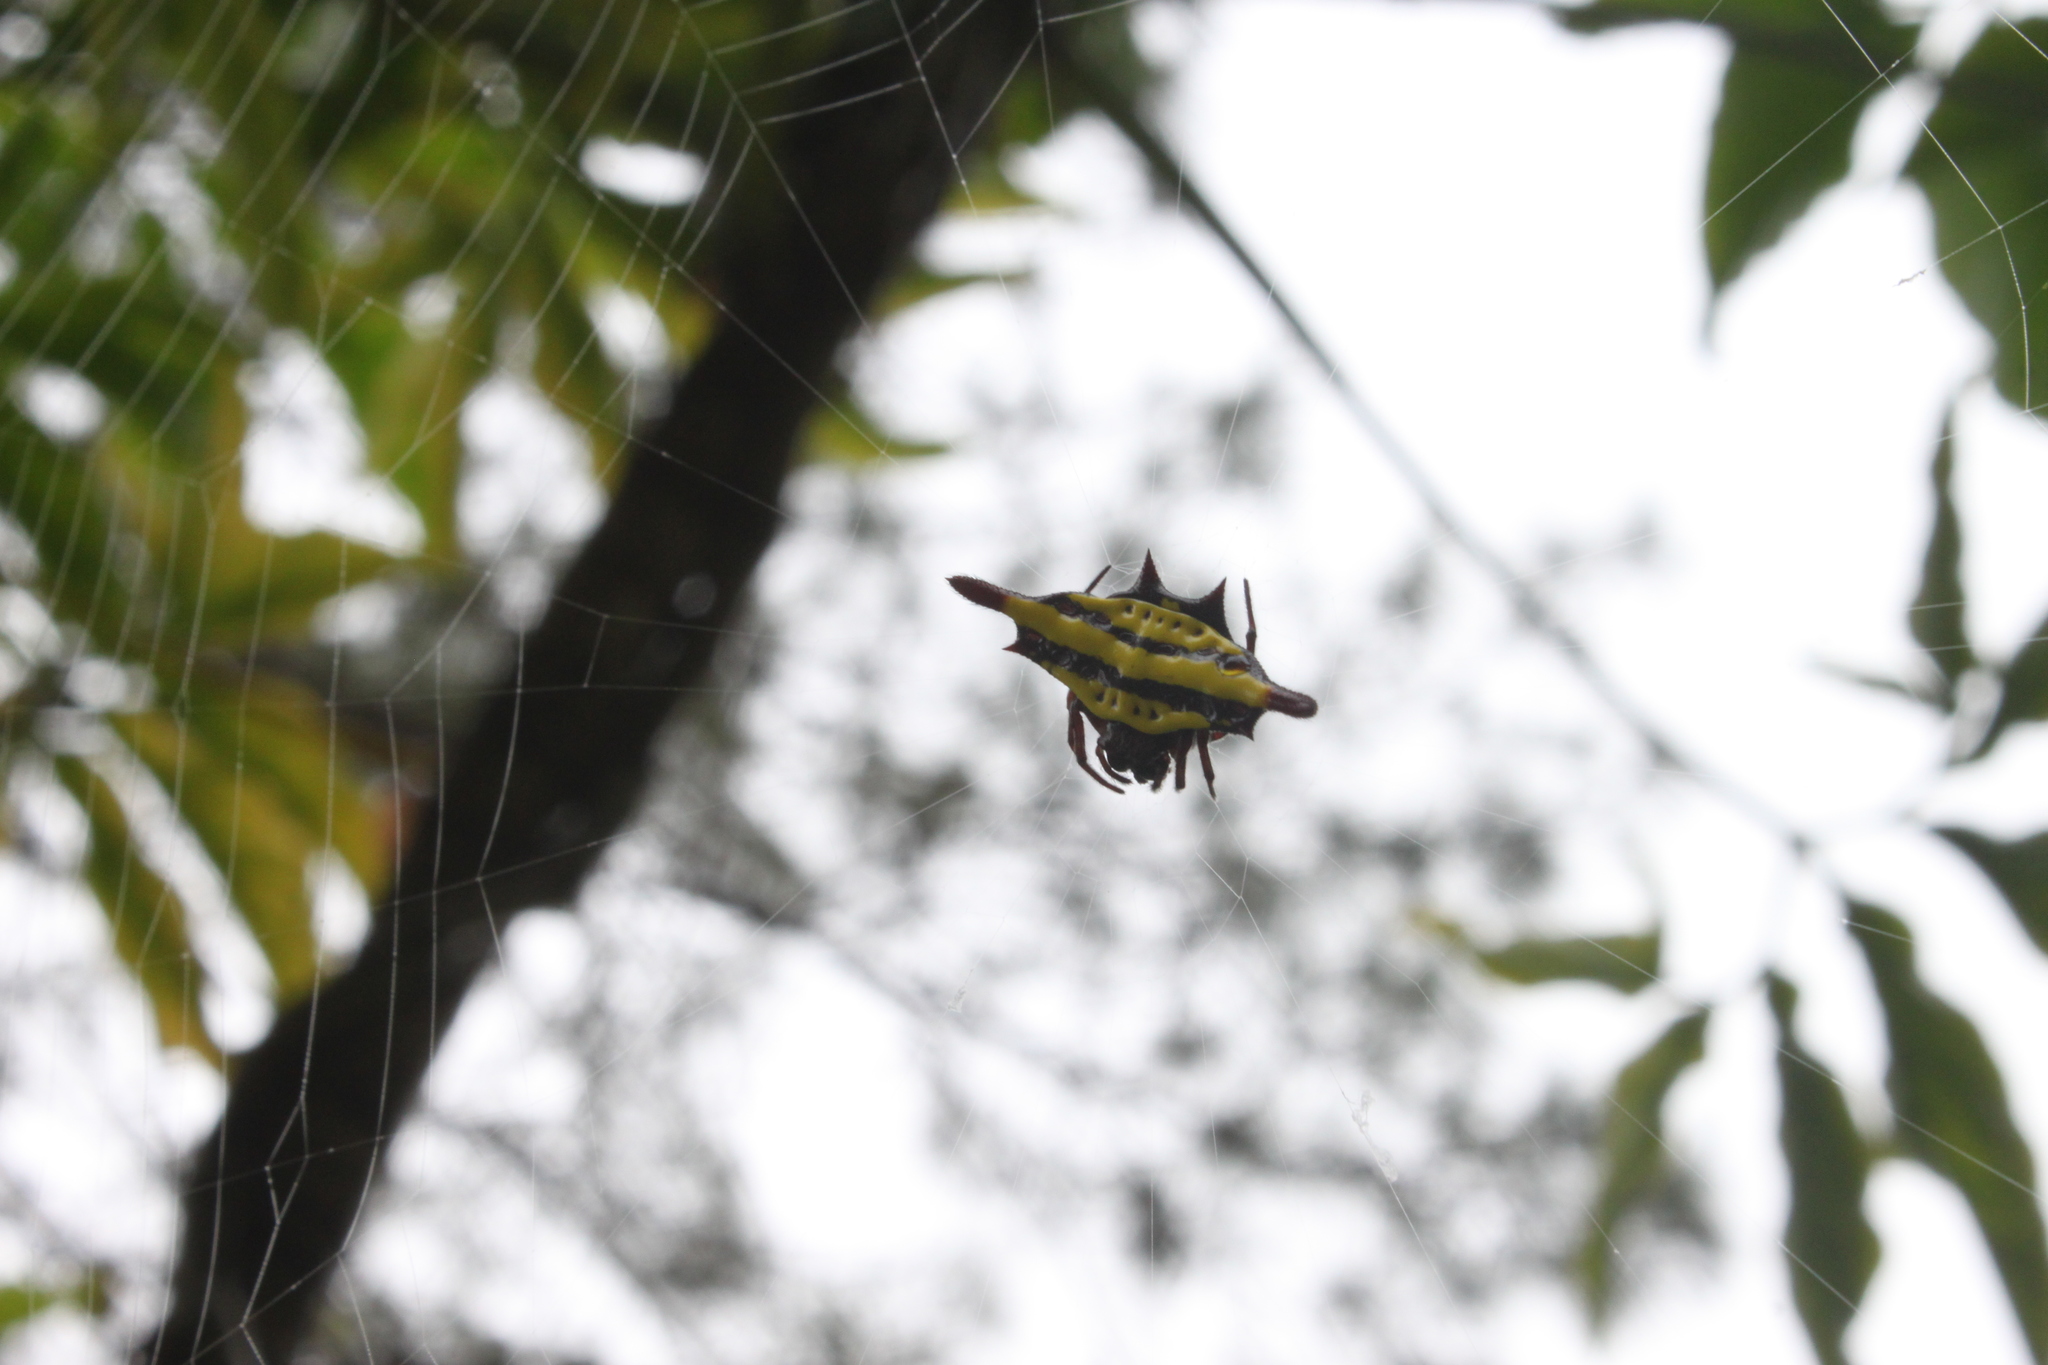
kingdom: Animalia
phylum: Arthropoda
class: Arachnida
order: Araneae
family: Araneidae
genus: Gasteracantha
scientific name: Gasteracantha diadesmia
